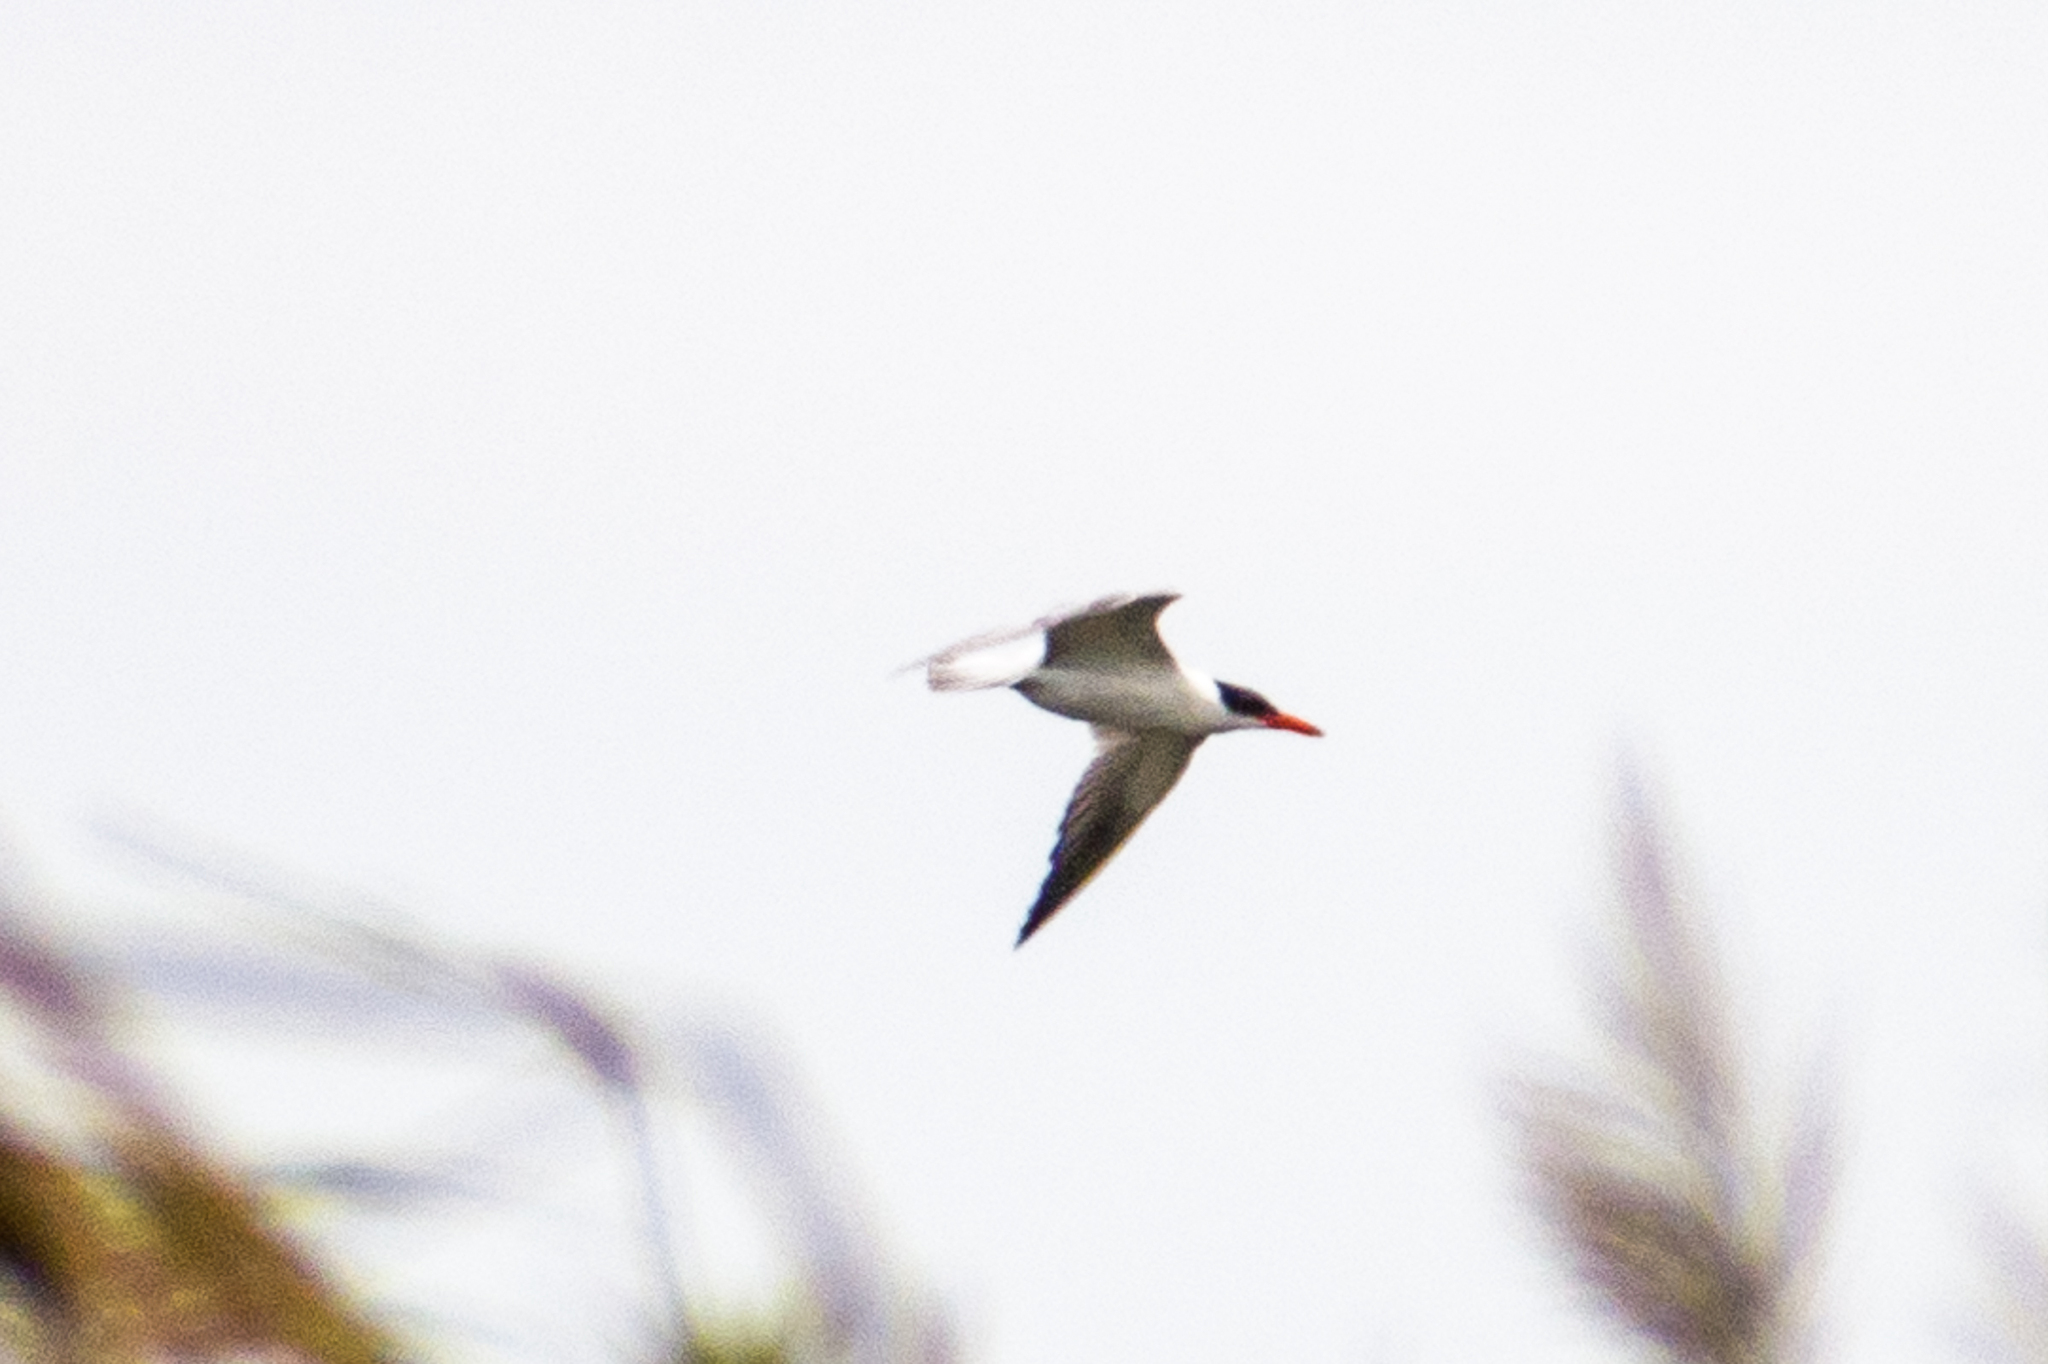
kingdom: Animalia
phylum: Chordata
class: Aves
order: Charadriiformes
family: Laridae
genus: Hydroprogne
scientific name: Hydroprogne caspia
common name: Caspian tern
